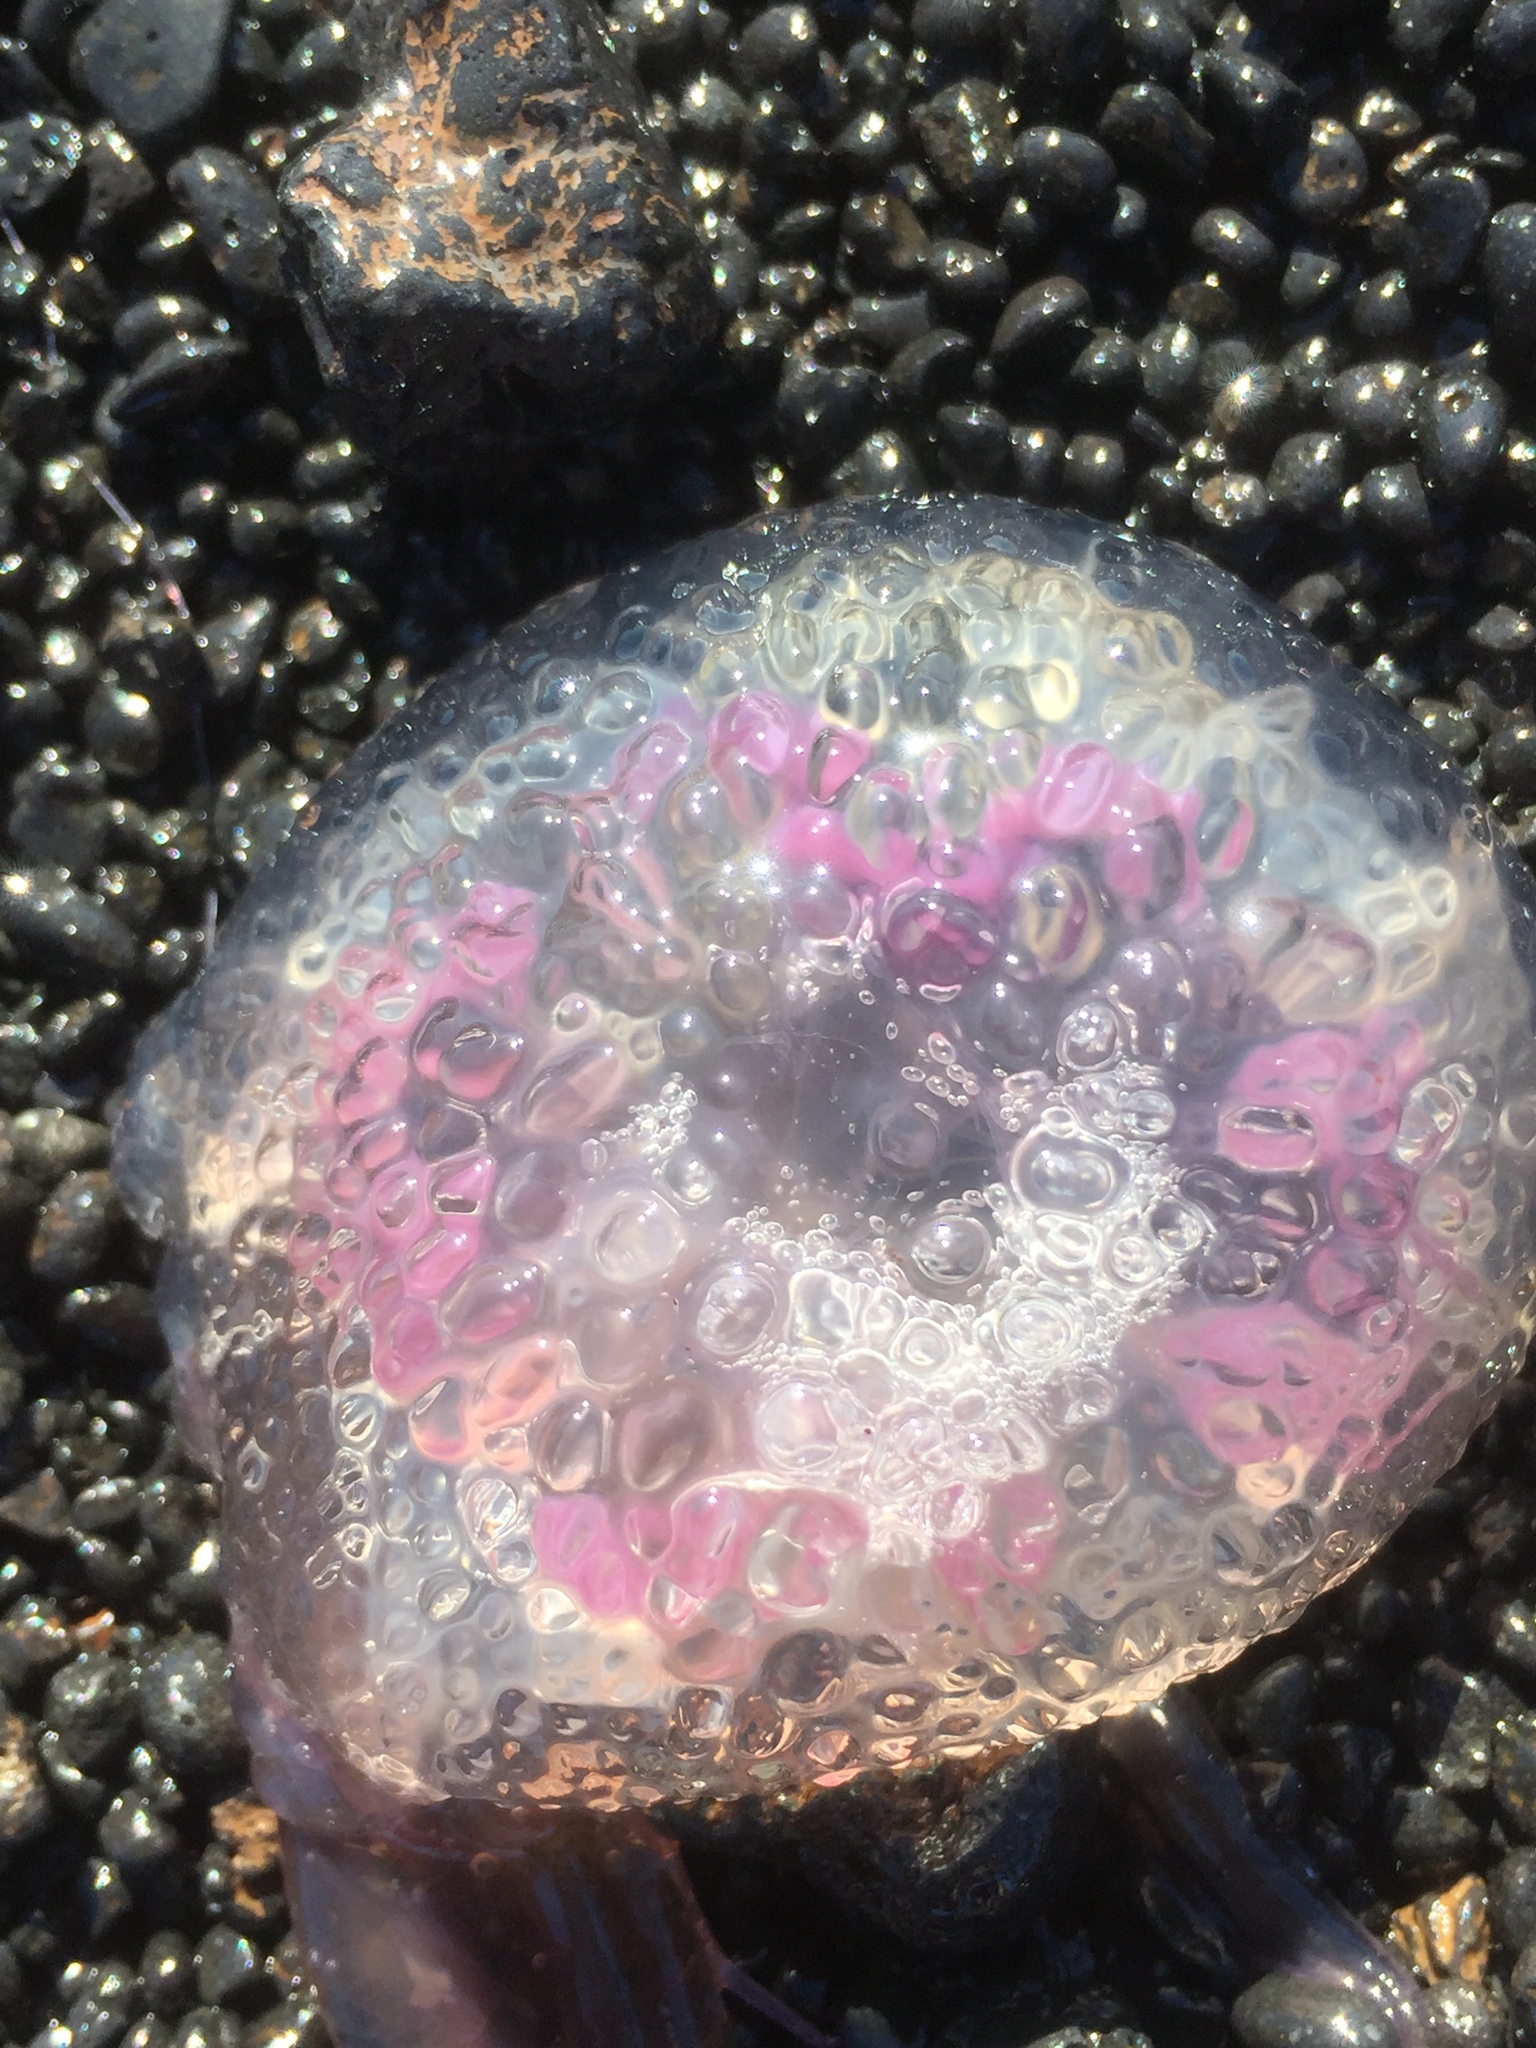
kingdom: Animalia
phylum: Cnidaria
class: Scyphozoa
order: Semaeostomeae
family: Pelagiidae
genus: Pelagia
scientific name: Pelagia noctiluca
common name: Mauve stinger
